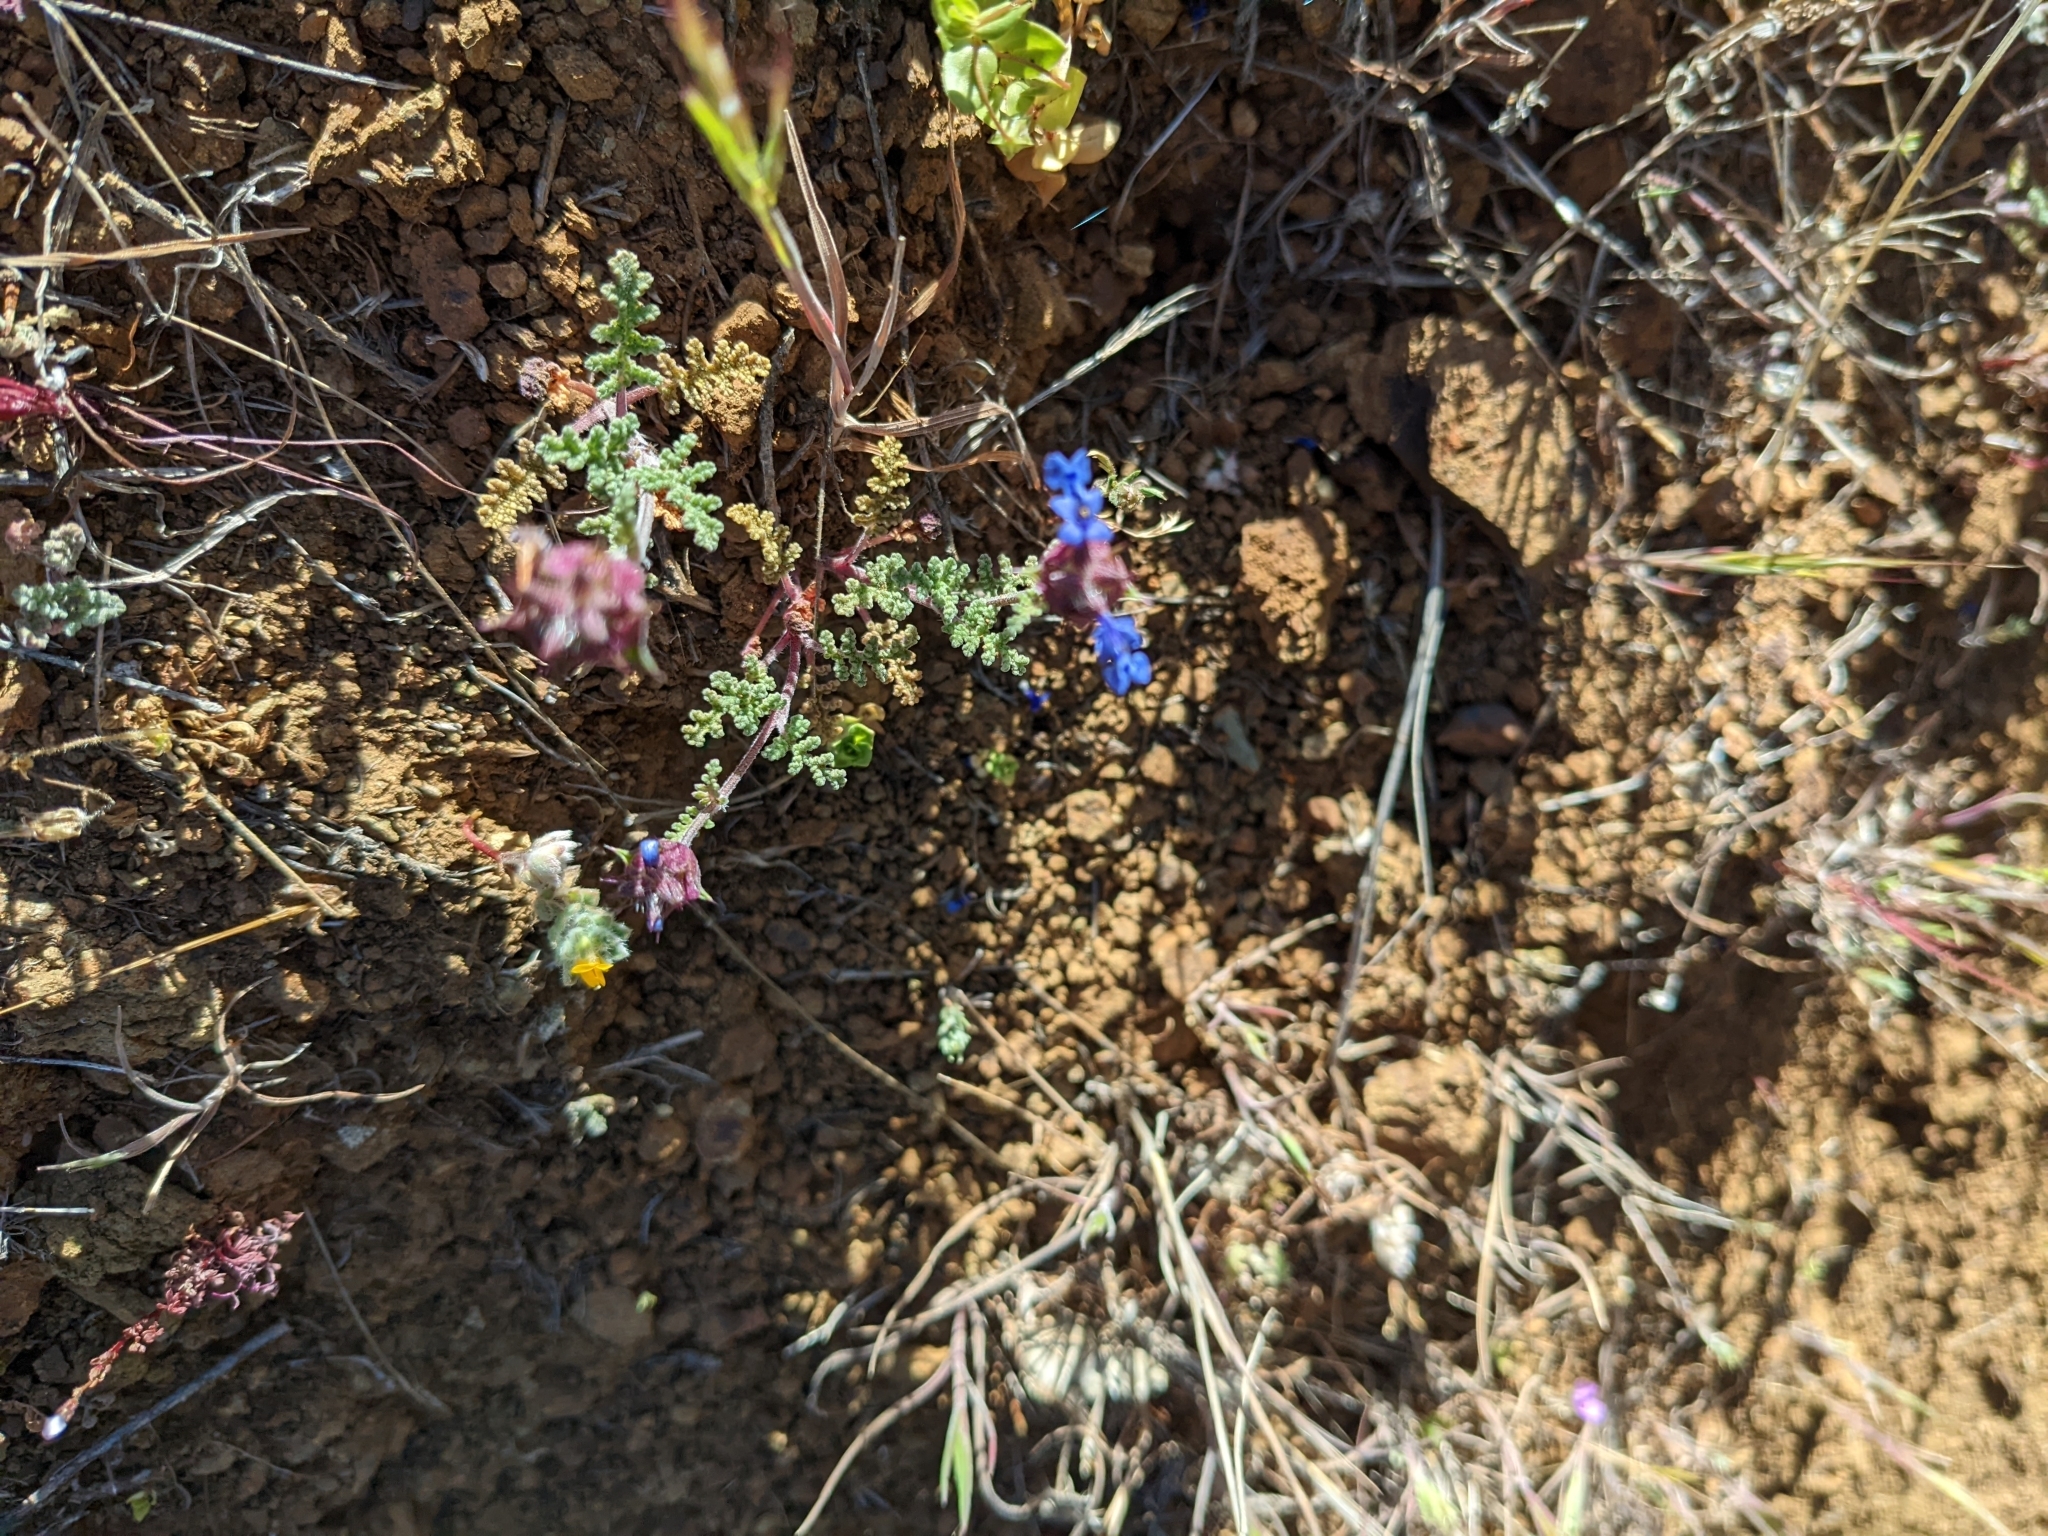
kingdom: Plantae
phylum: Tracheophyta
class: Magnoliopsida
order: Lamiales
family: Lamiaceae
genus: Salvia
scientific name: Salvia columbariae
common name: Chia
